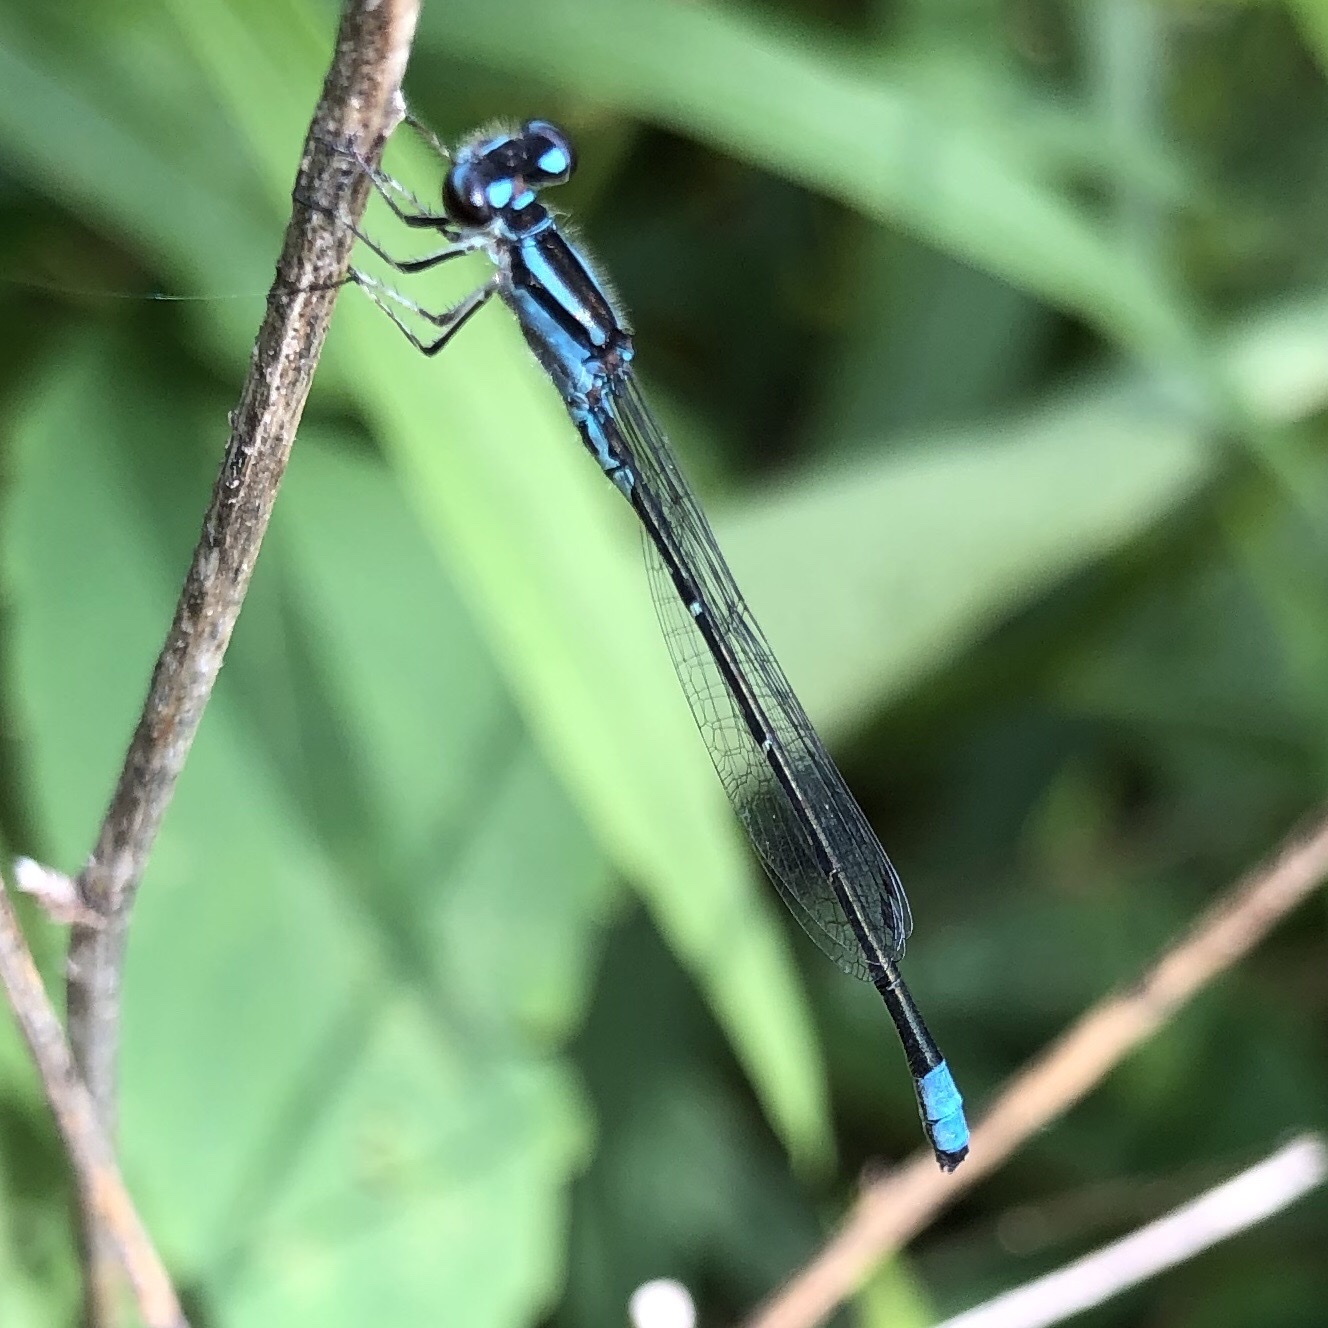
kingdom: Animalia
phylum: Arthropoda
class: Insecta
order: Odonata
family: Coenagrionidae
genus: Enallagma
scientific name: Enallagma geminatum
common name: Skimming bluet
